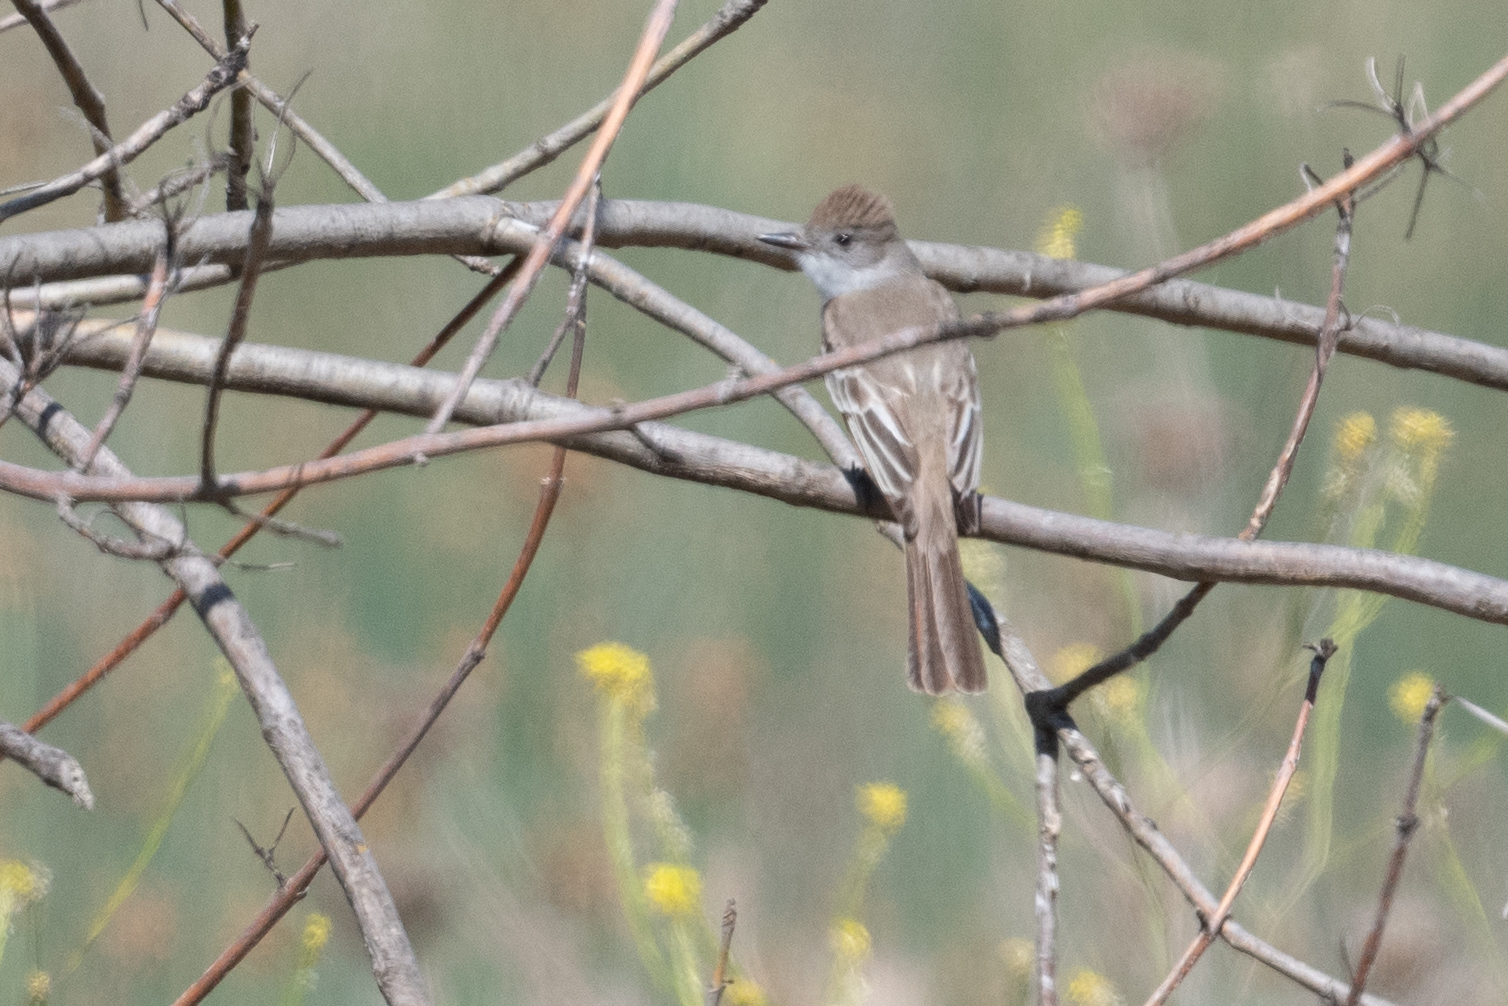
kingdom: Animalia
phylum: Chordata
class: Aves
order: Passeriformes
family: Tyrannidae
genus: Myiarchus
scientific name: Myiarchus cinerascens
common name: Ash-throated flycatcher
